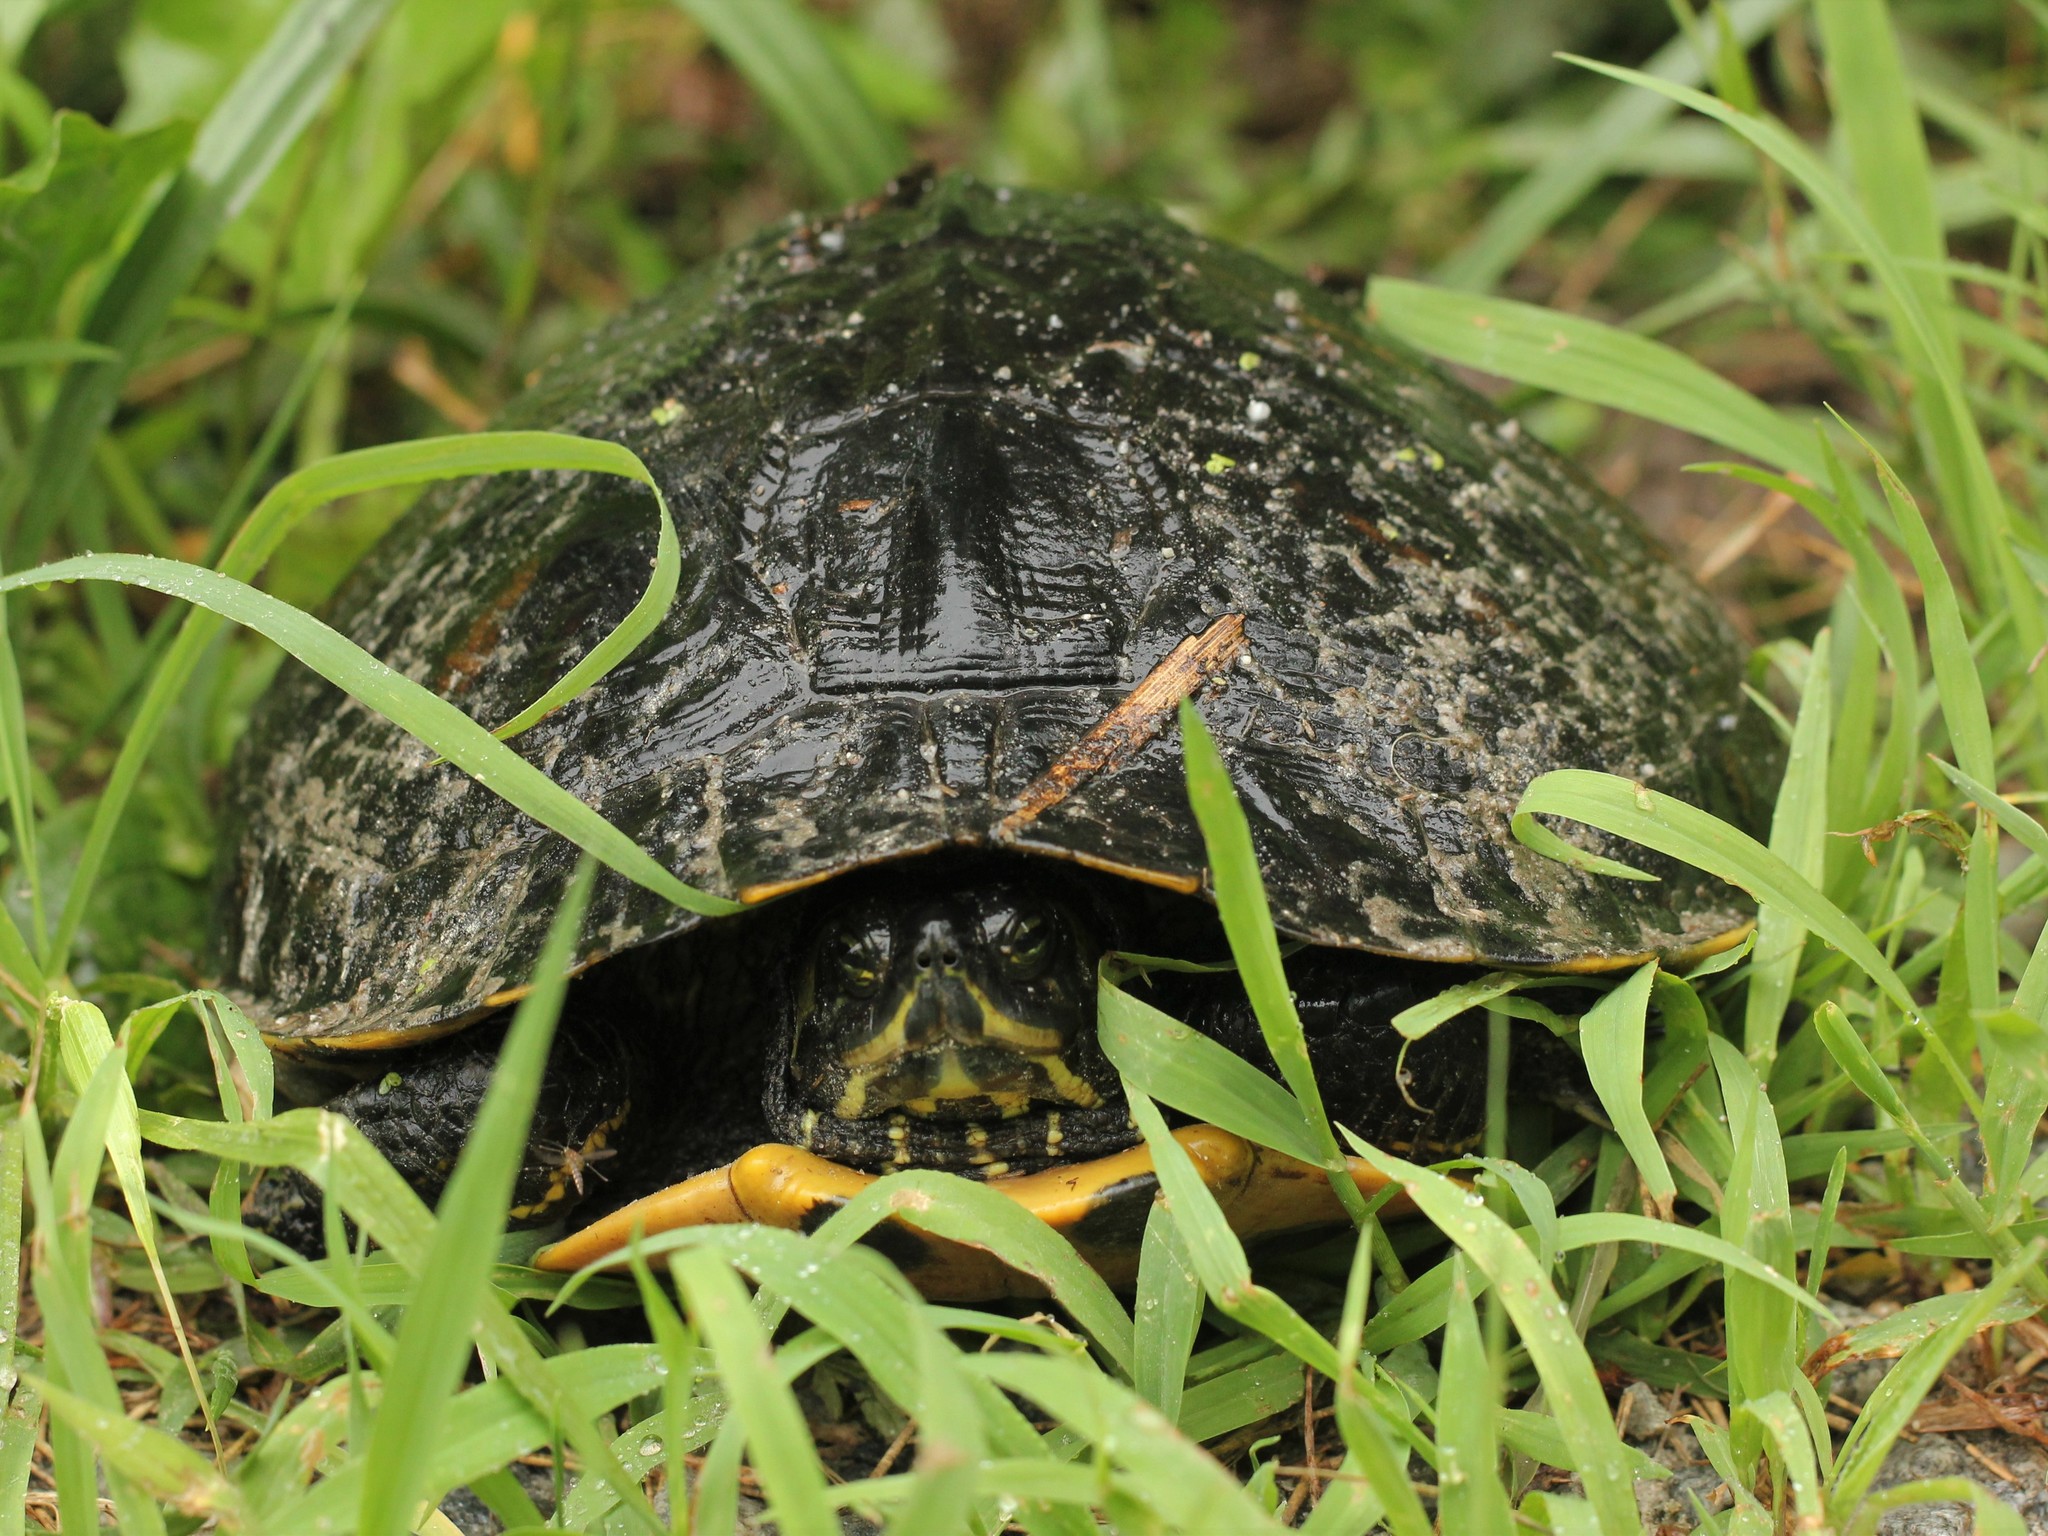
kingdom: Animalia
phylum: Chordata
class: Testudines
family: Emydidae
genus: Trachemys
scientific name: Trachemys scripta
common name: Slider
